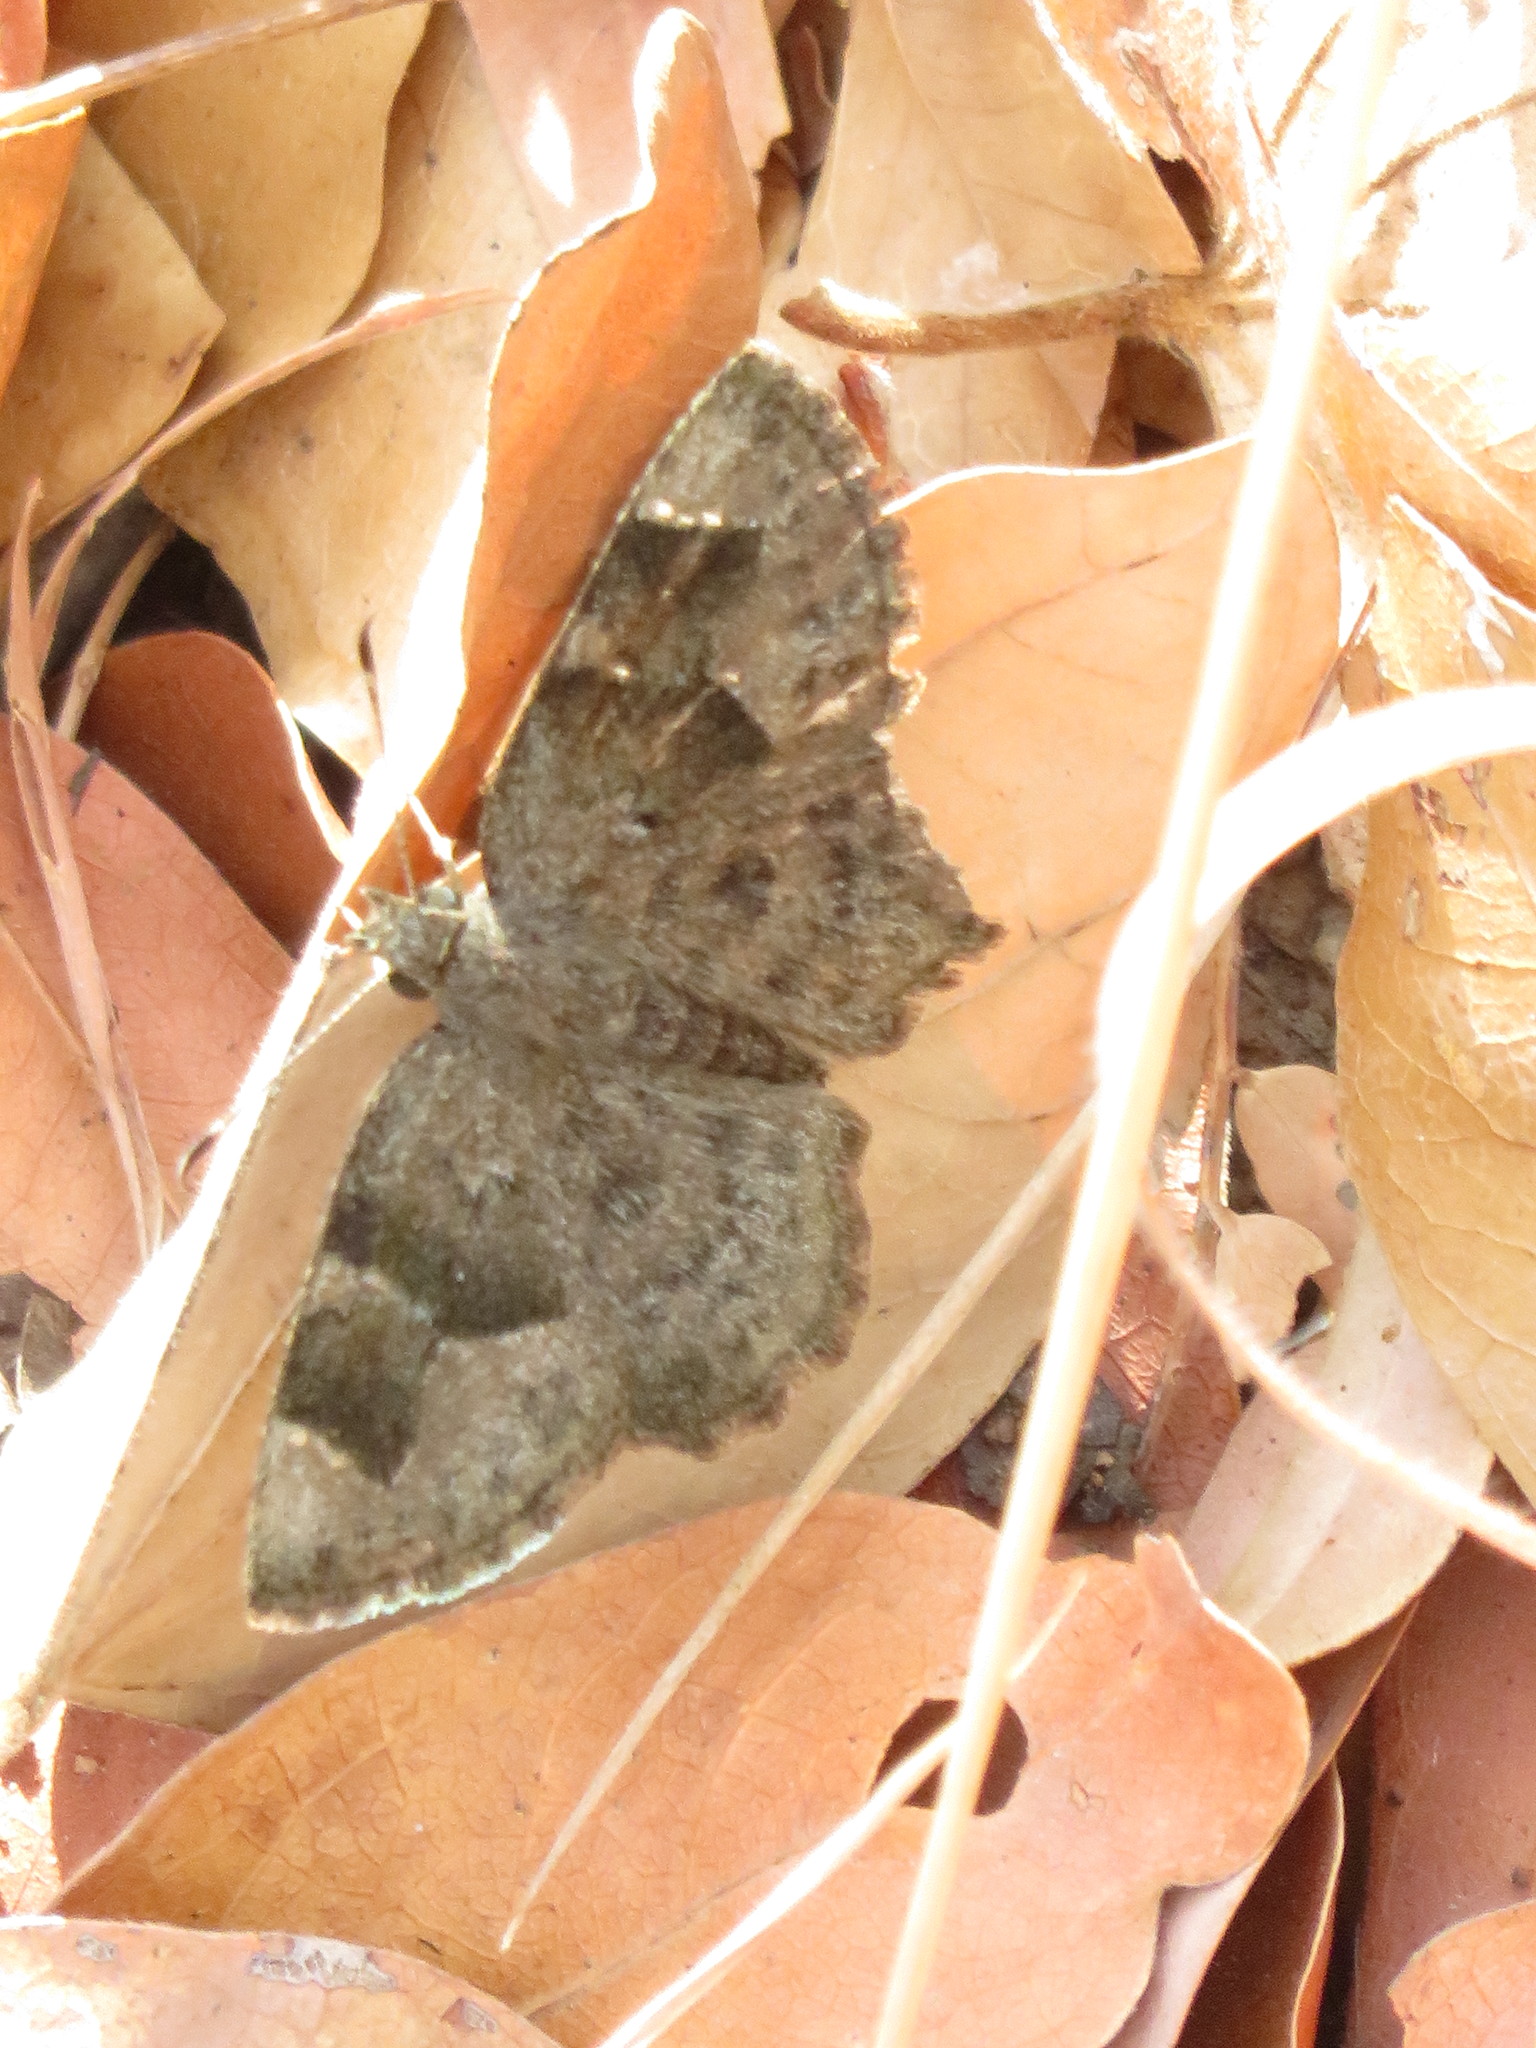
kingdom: Animalia
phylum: Arthropoda
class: Insecta
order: Lepidoptera
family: Hesperiidae
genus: Sarangesa
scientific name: Sarangesa phidyle
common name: Small elfin
